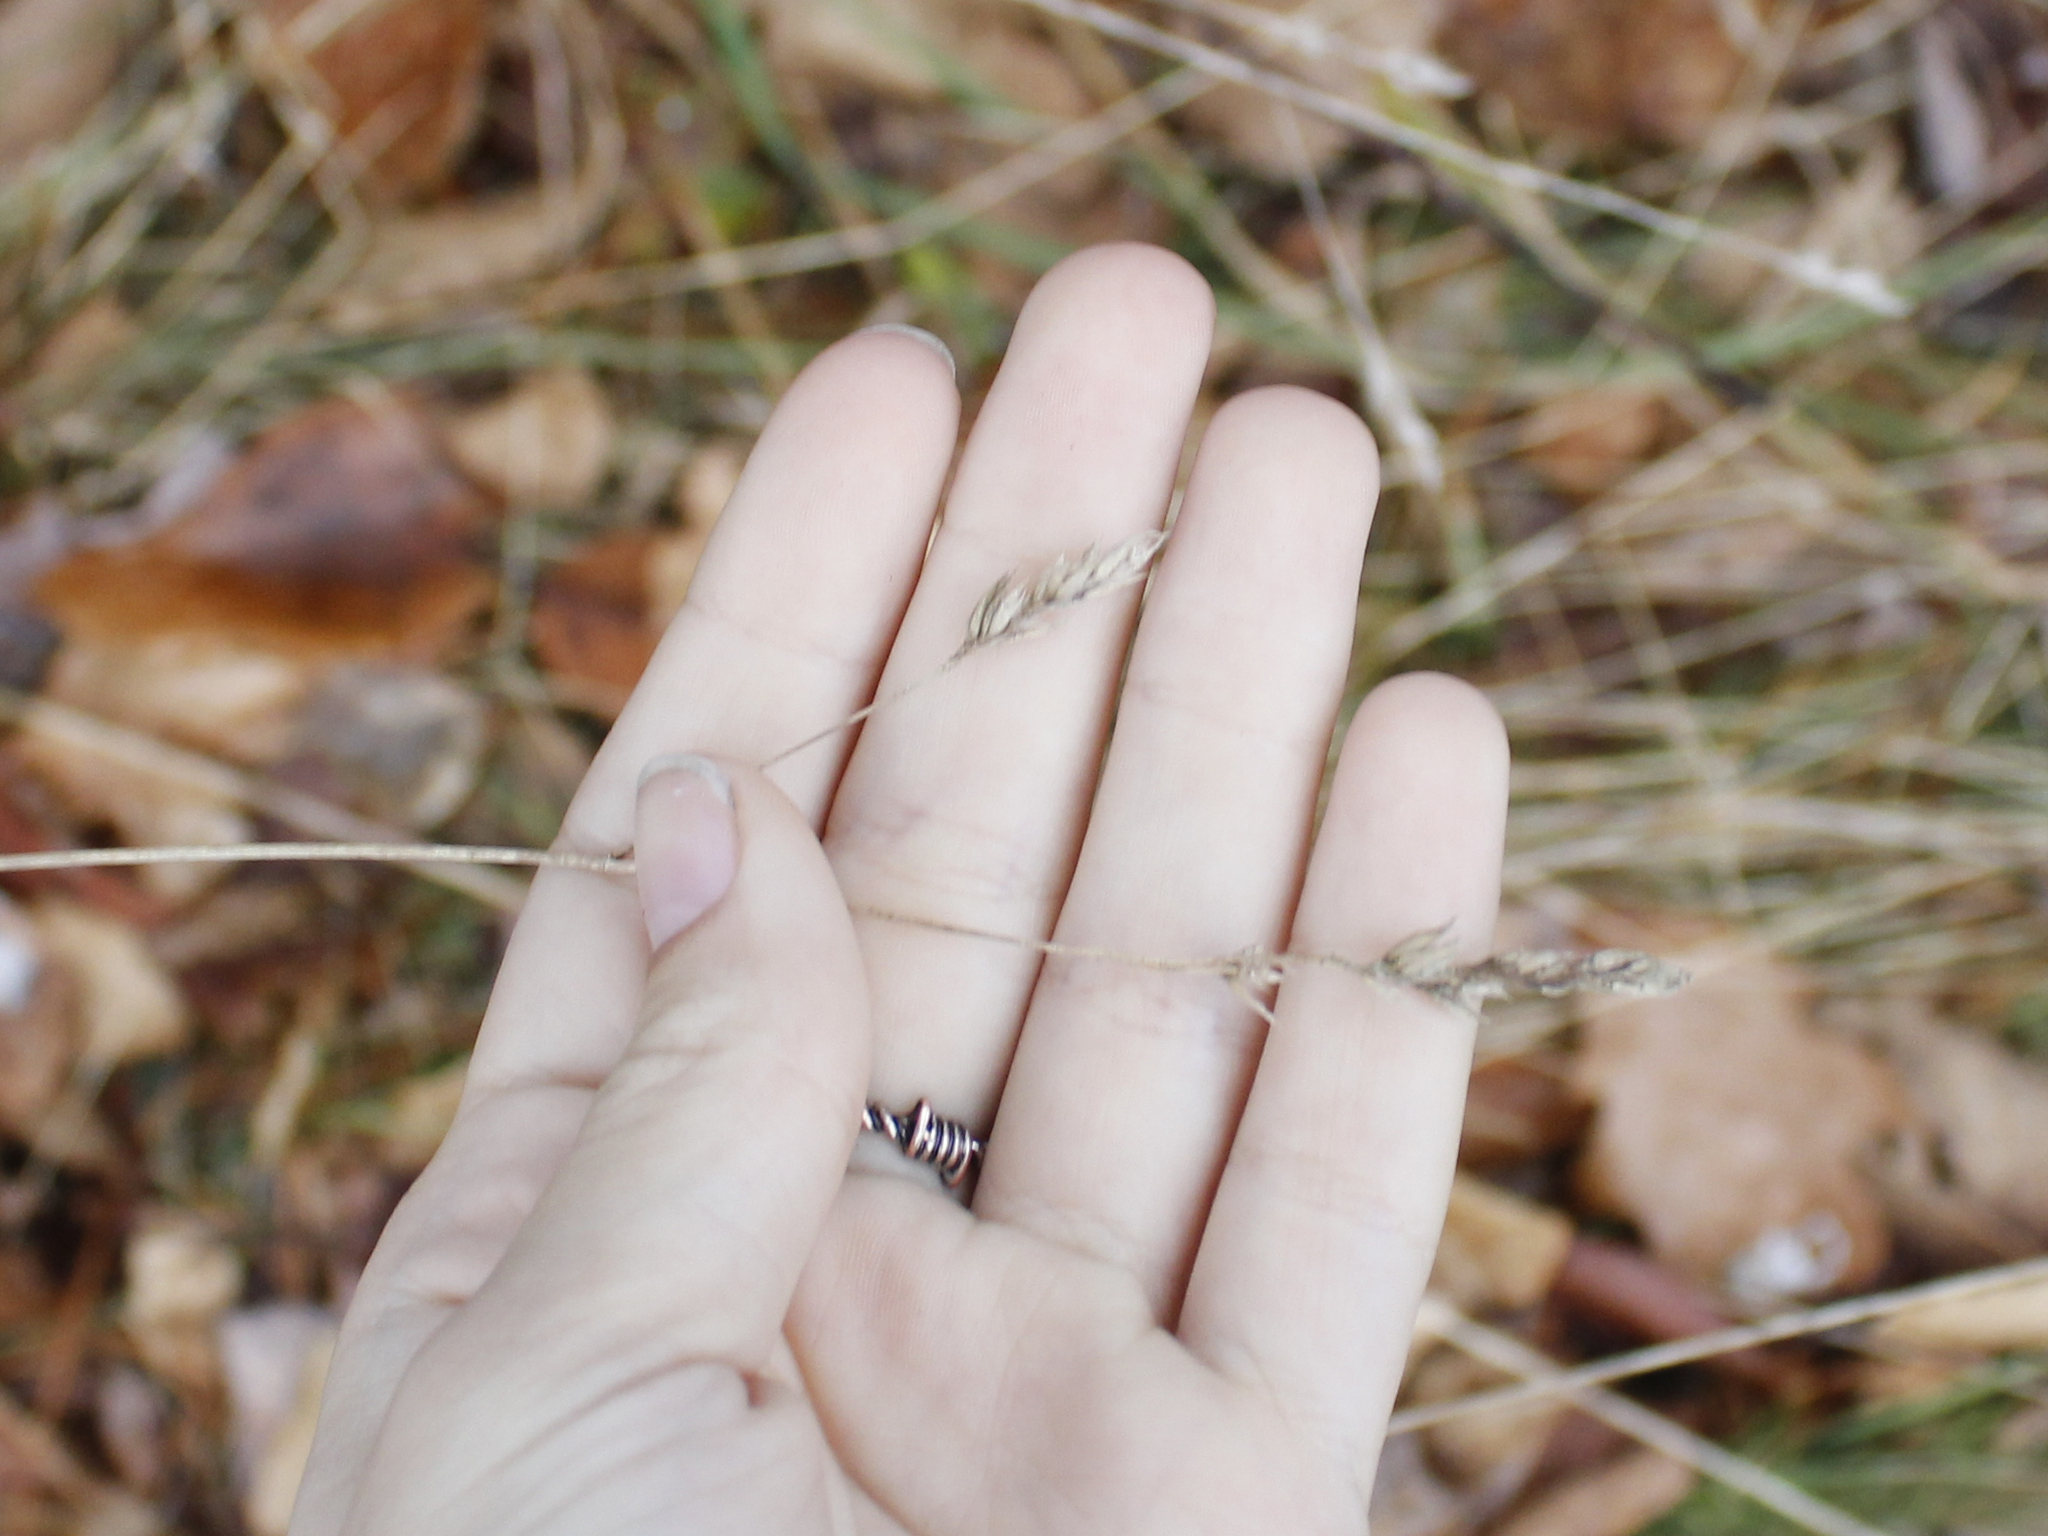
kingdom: Plantae
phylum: Tracheophyta
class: Liliopsida
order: Poales
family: Poaceae
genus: Dactylis
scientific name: Dactylis glomerata
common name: Orchardgrass
